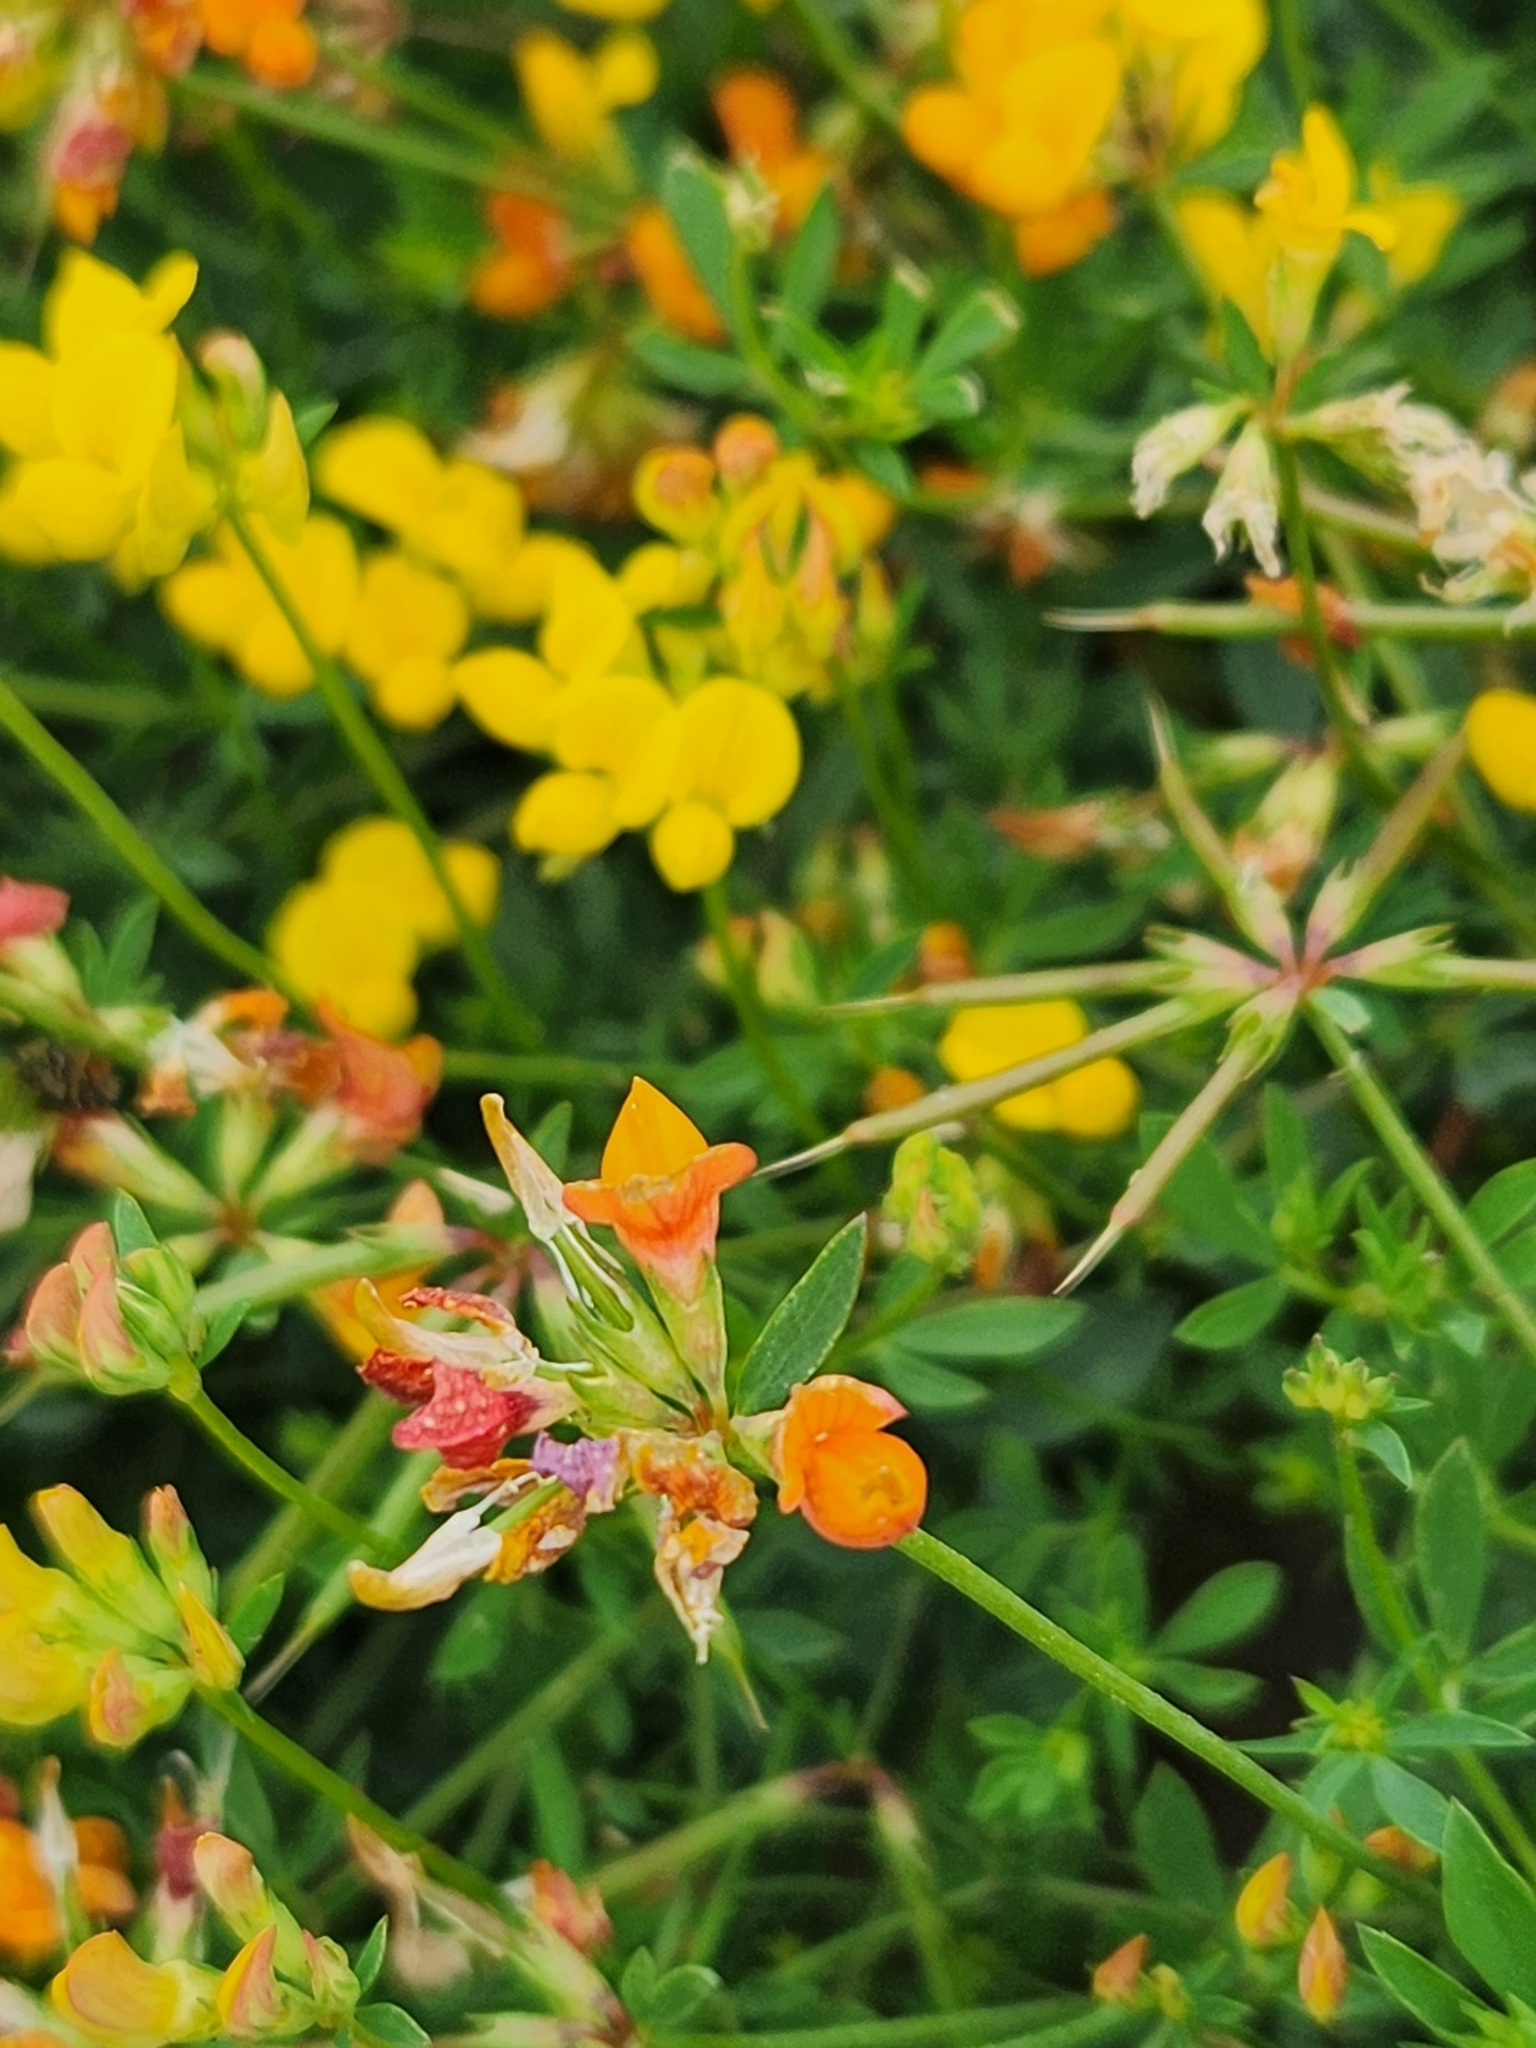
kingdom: Plantae
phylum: Tracheophyta
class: Magnoliopsida
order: Fabales
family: Fabaceae
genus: Lotus
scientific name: Lotus tenuis
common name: Narrow-leaved bird's-foot-trefoil
